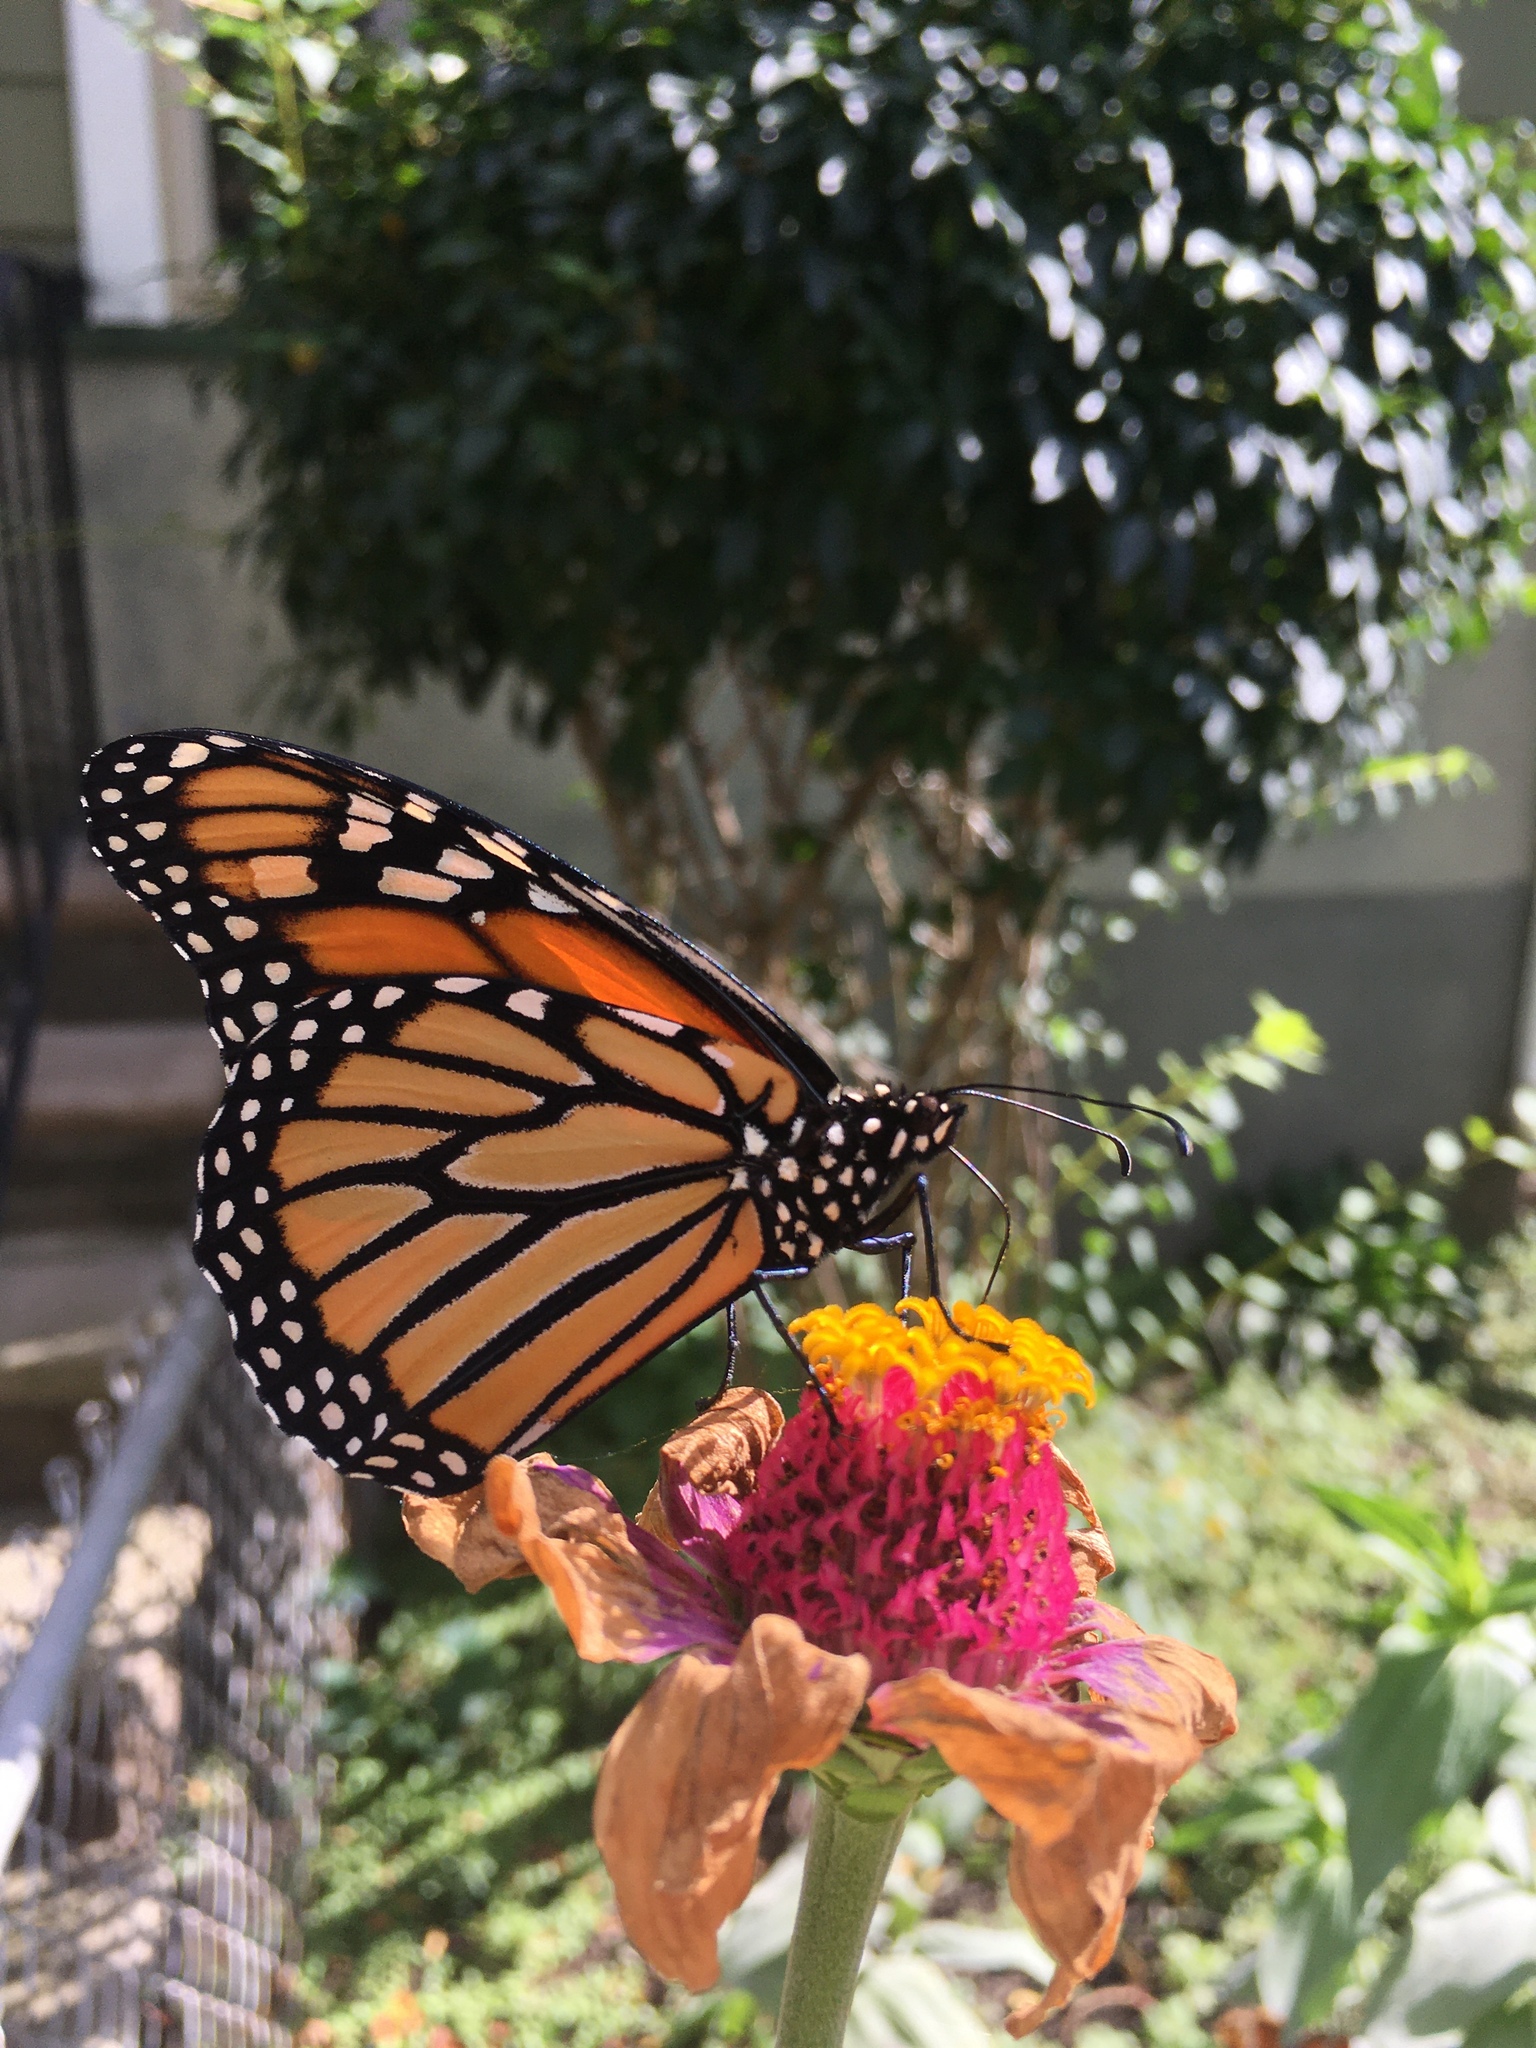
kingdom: Animalia
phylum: Arthropoda
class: Insecta
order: Lepidoptera
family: Nymphalidae
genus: Danaus
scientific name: Danaus plexippus
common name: Monarch
